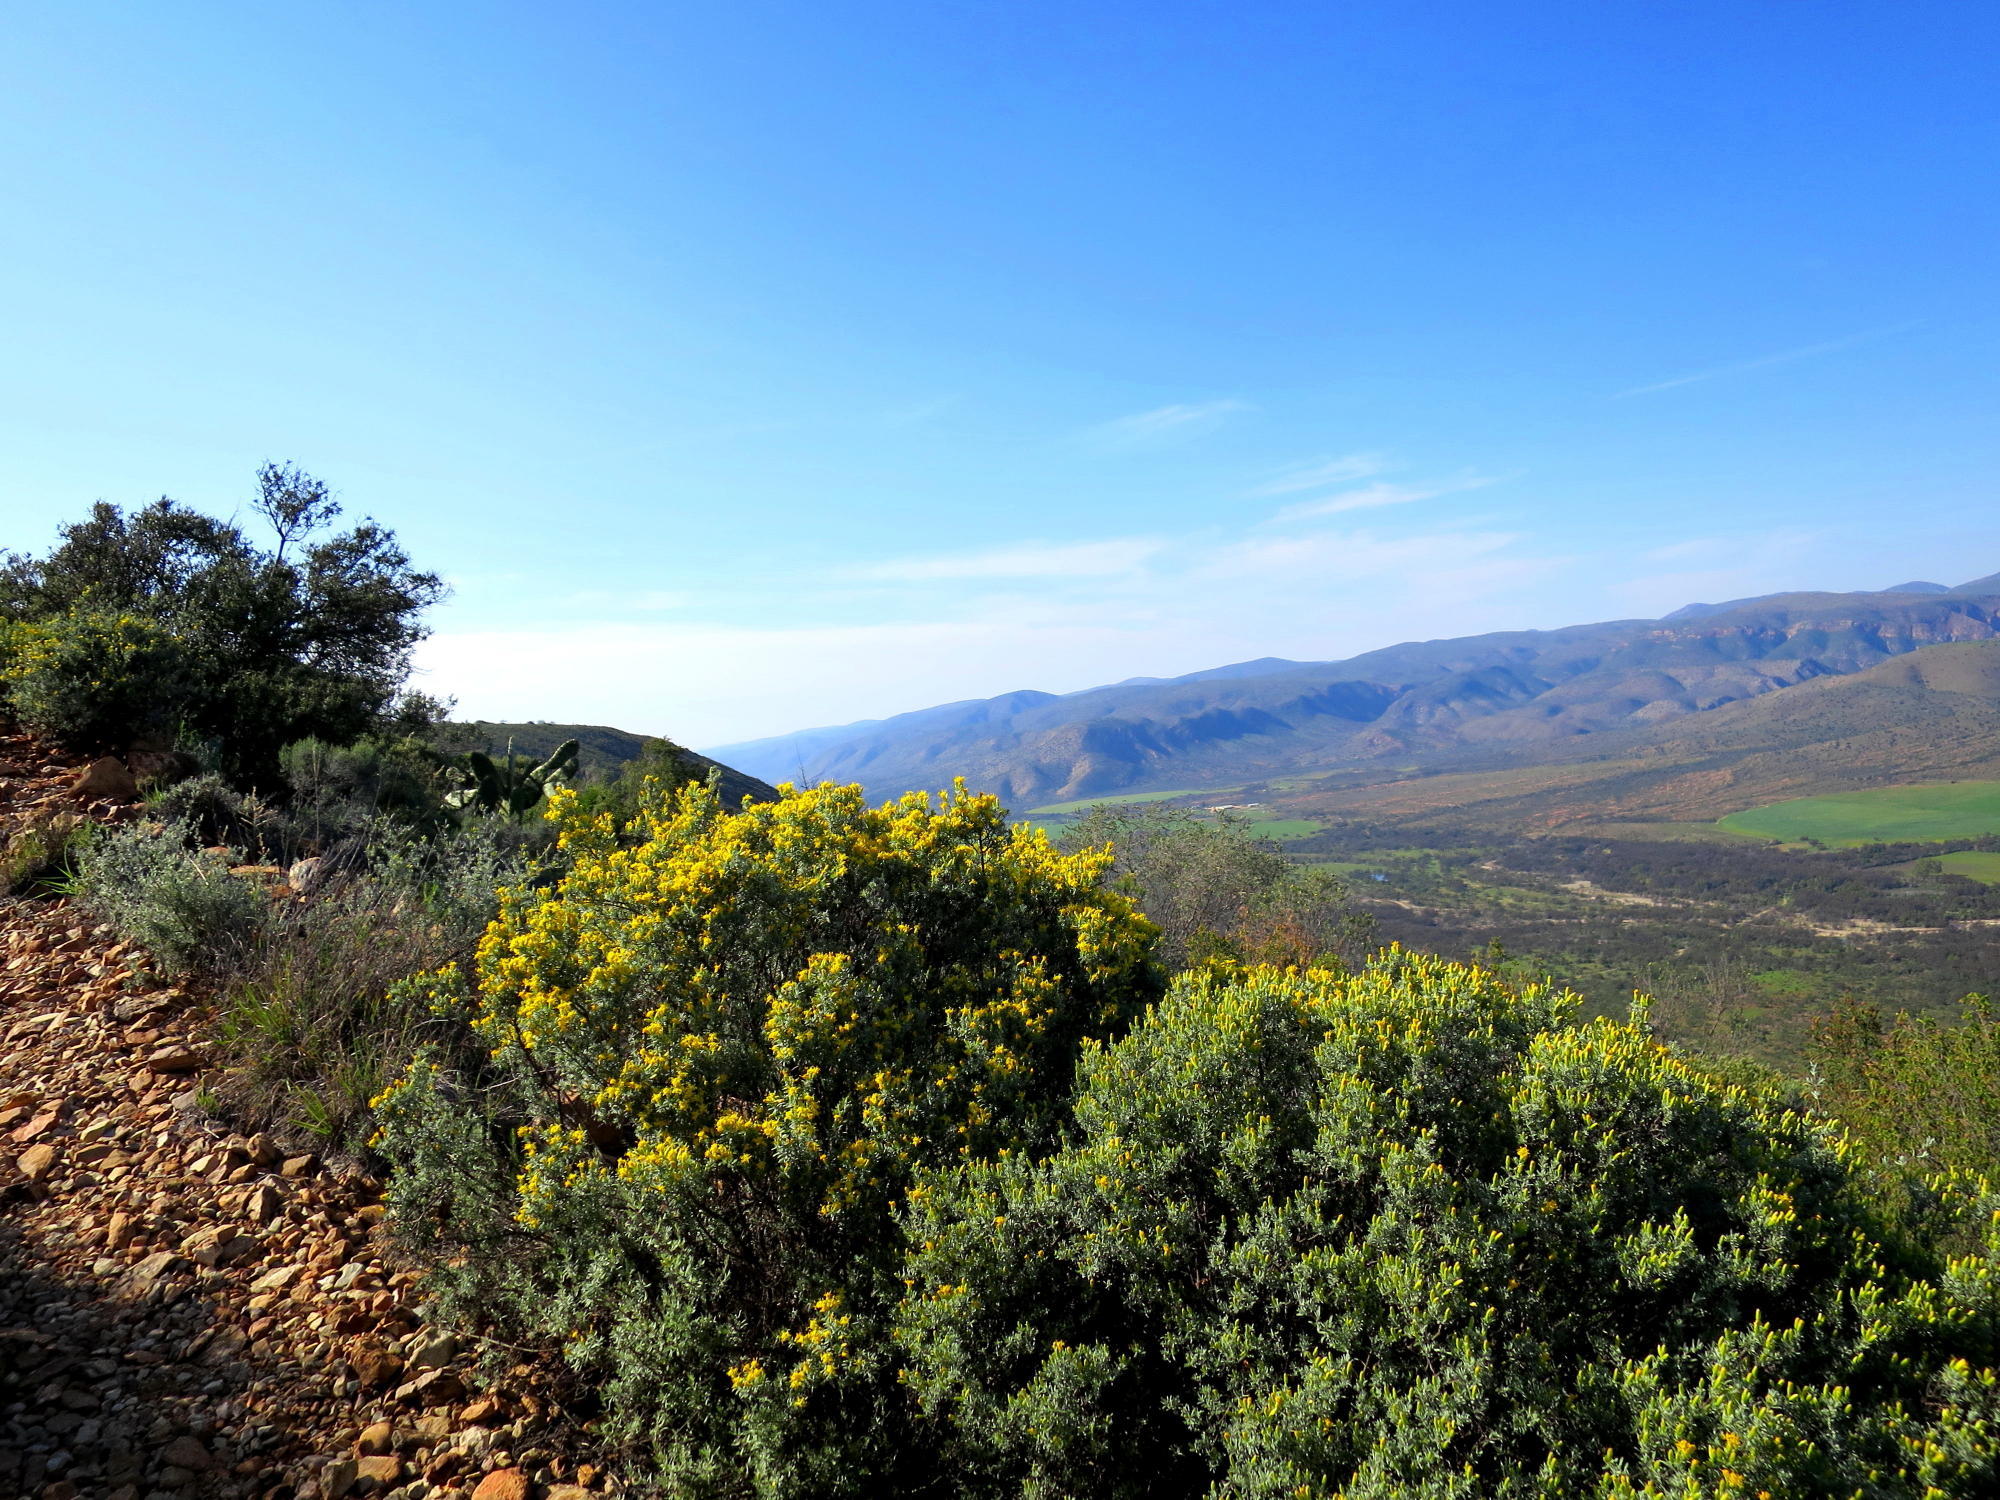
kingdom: Plantae
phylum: Tracheophyta
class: Magnoliopsida
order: Asterales
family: Asteraceae
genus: Pteronia
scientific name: Pteronia incana
